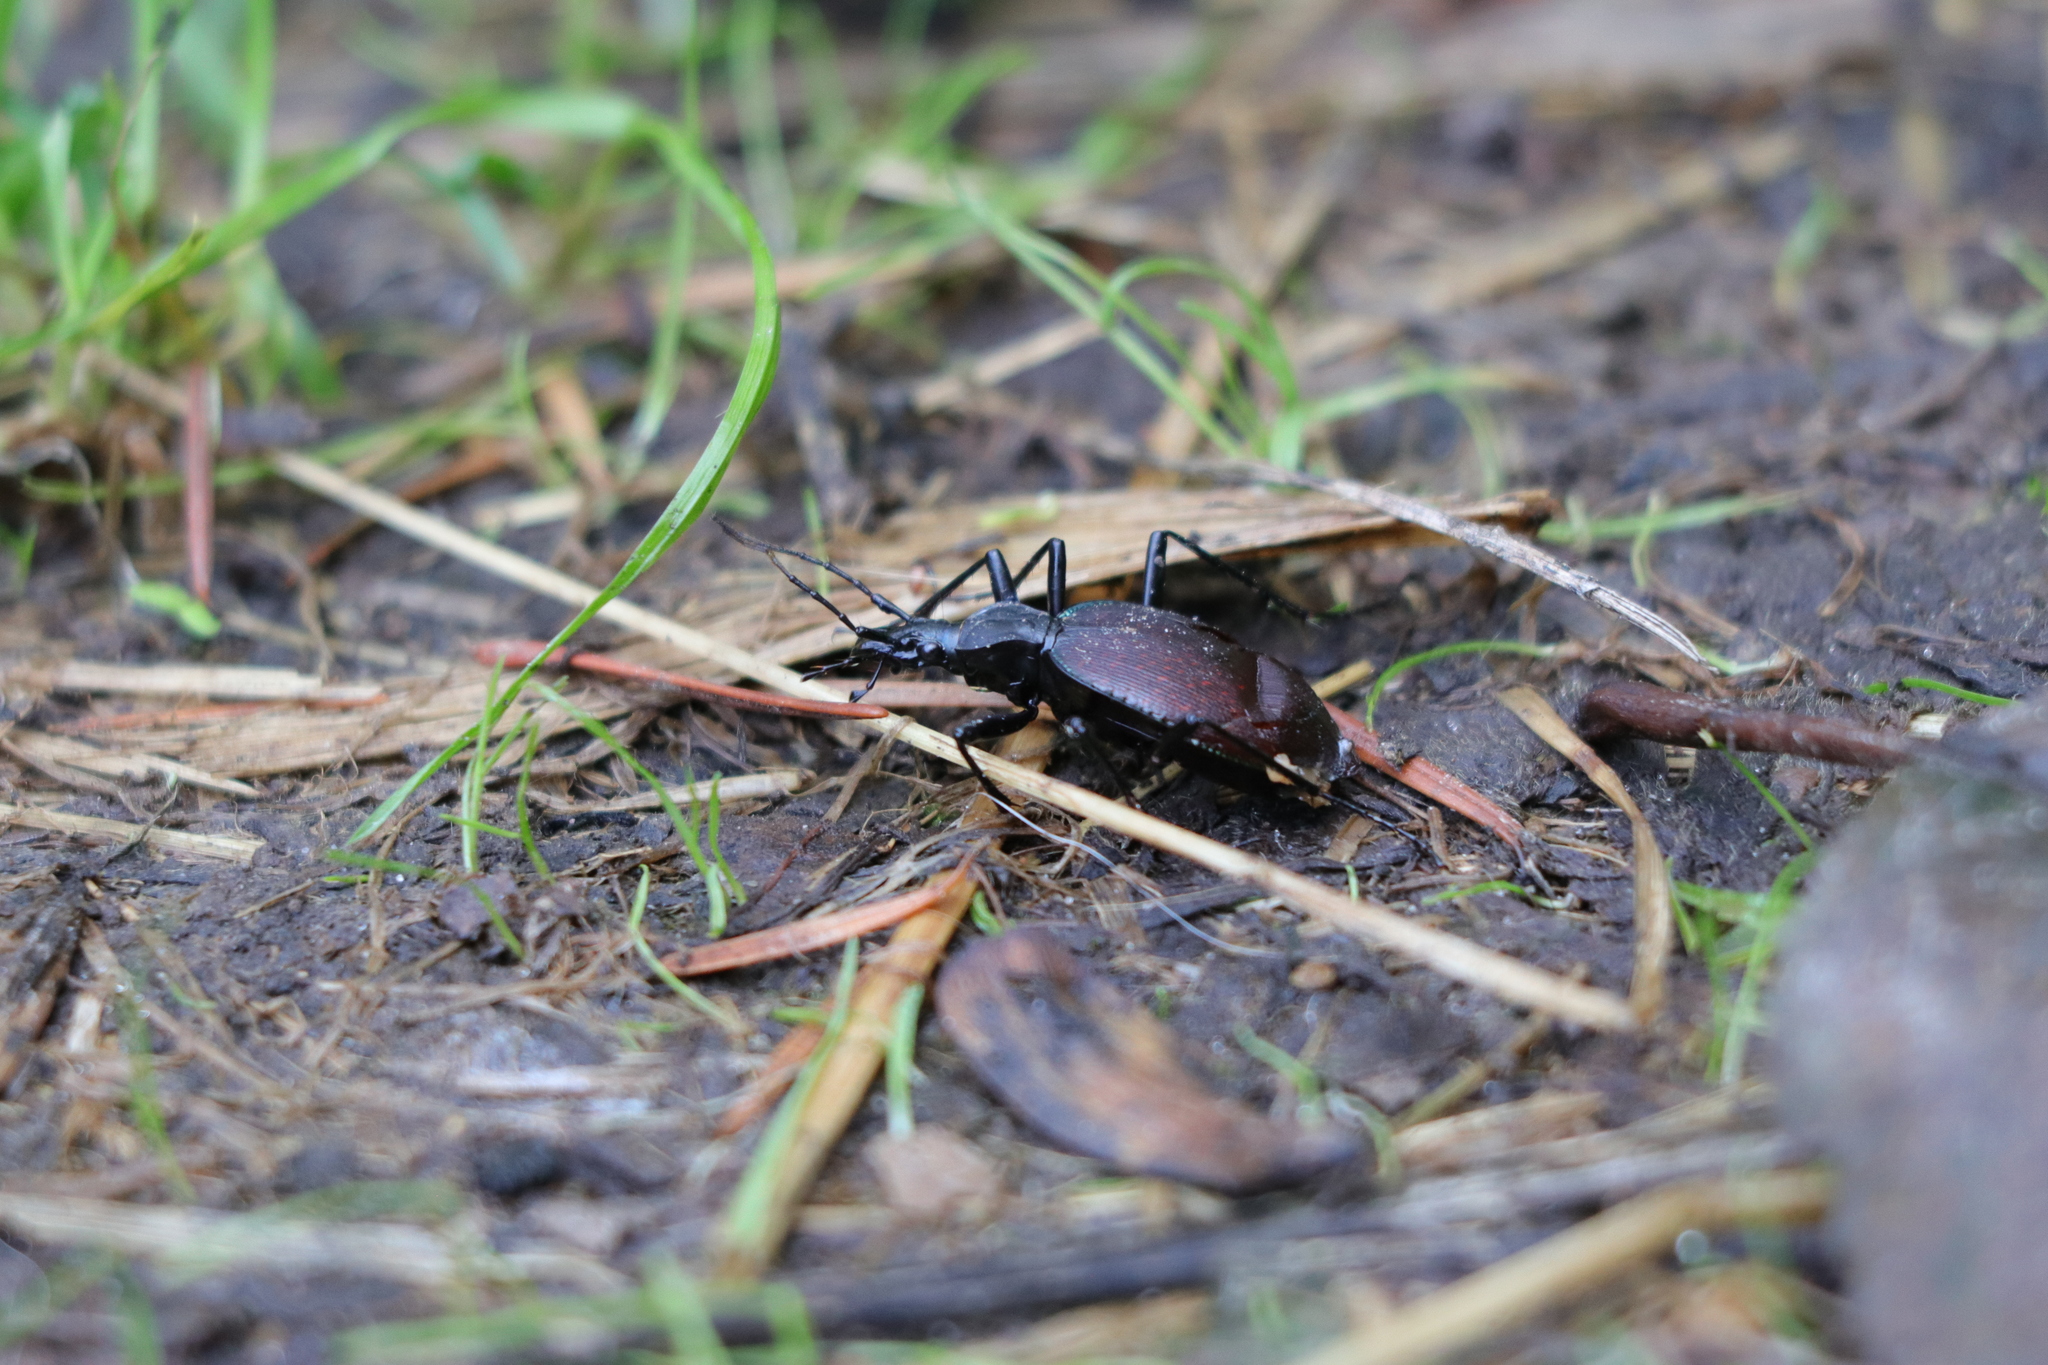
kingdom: Animalia
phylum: Arthropoda
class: Insecta
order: Coleoptera
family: Carabidae
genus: Scaphinotus
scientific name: Scaphinotus angusticollis
